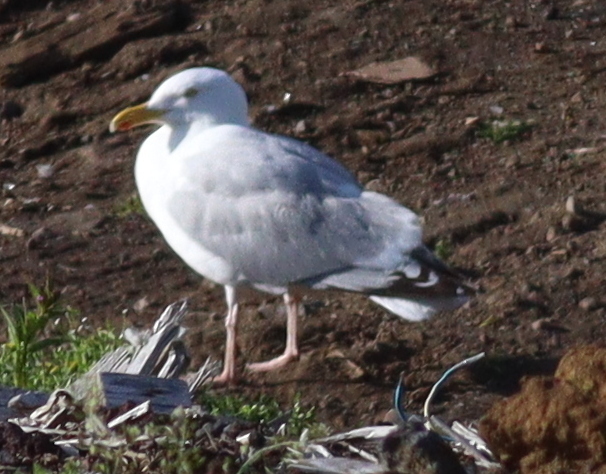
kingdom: Animalia
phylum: Chordata
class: Aves
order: Charadriiformes
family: Laridae
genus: Larus
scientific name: Larus argentatus
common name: Herring gull
